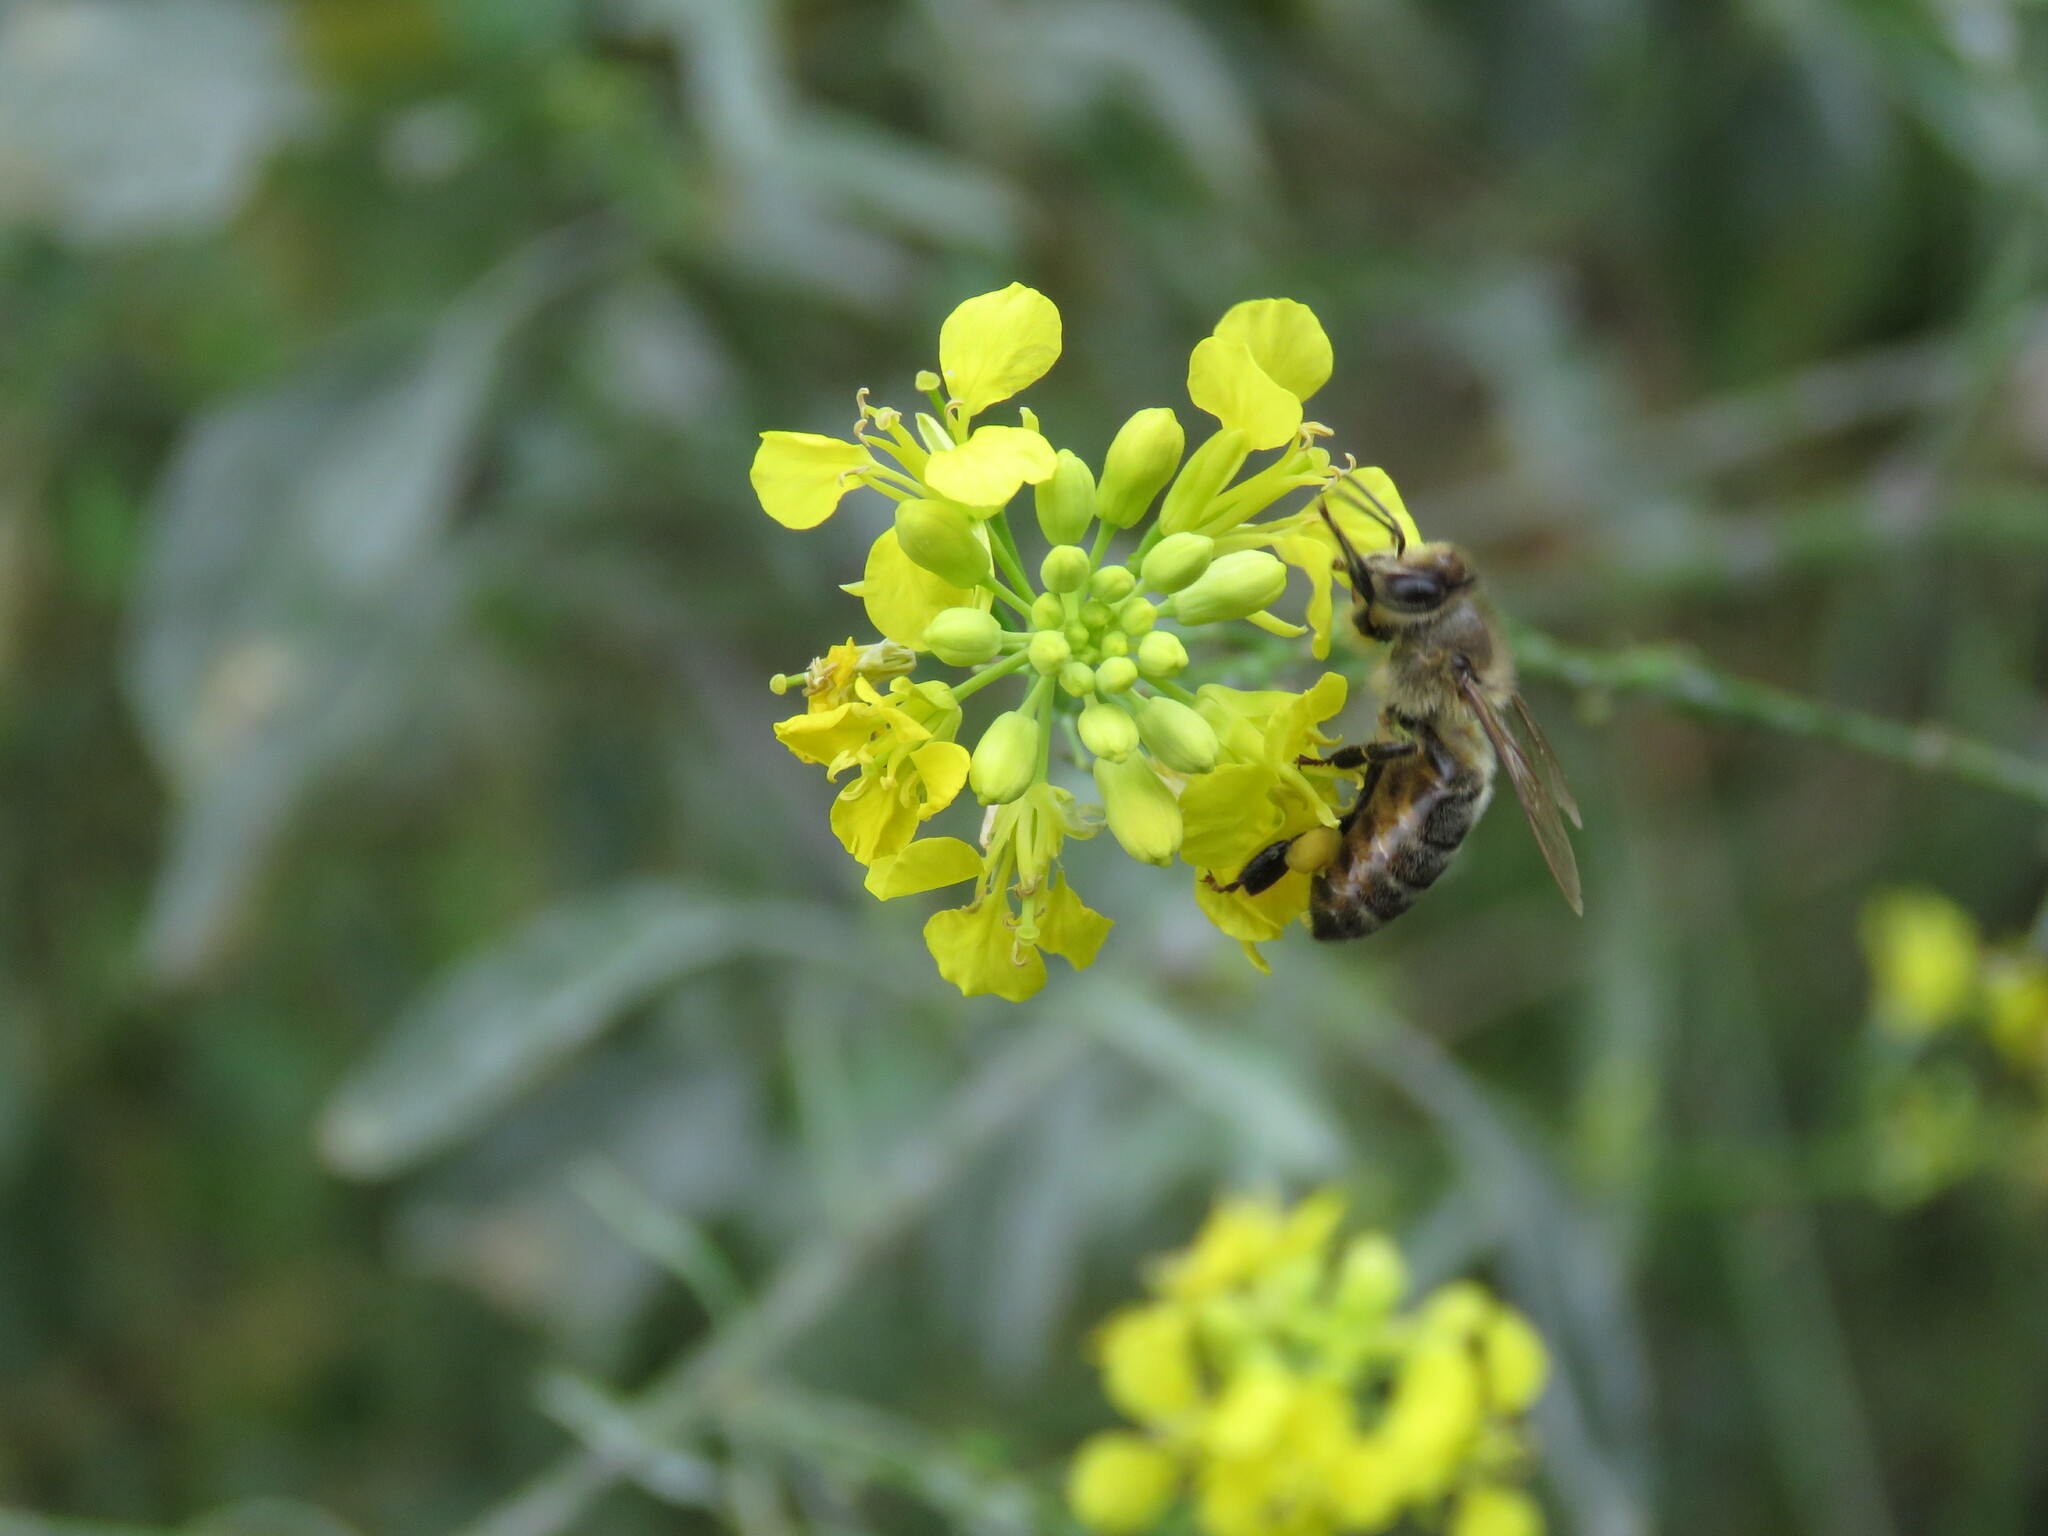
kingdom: Animalia
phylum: Arthropoda
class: Insecta
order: Hymenoptera
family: Apidae
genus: Apis
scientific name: Apis mellifera
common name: Honey bee
